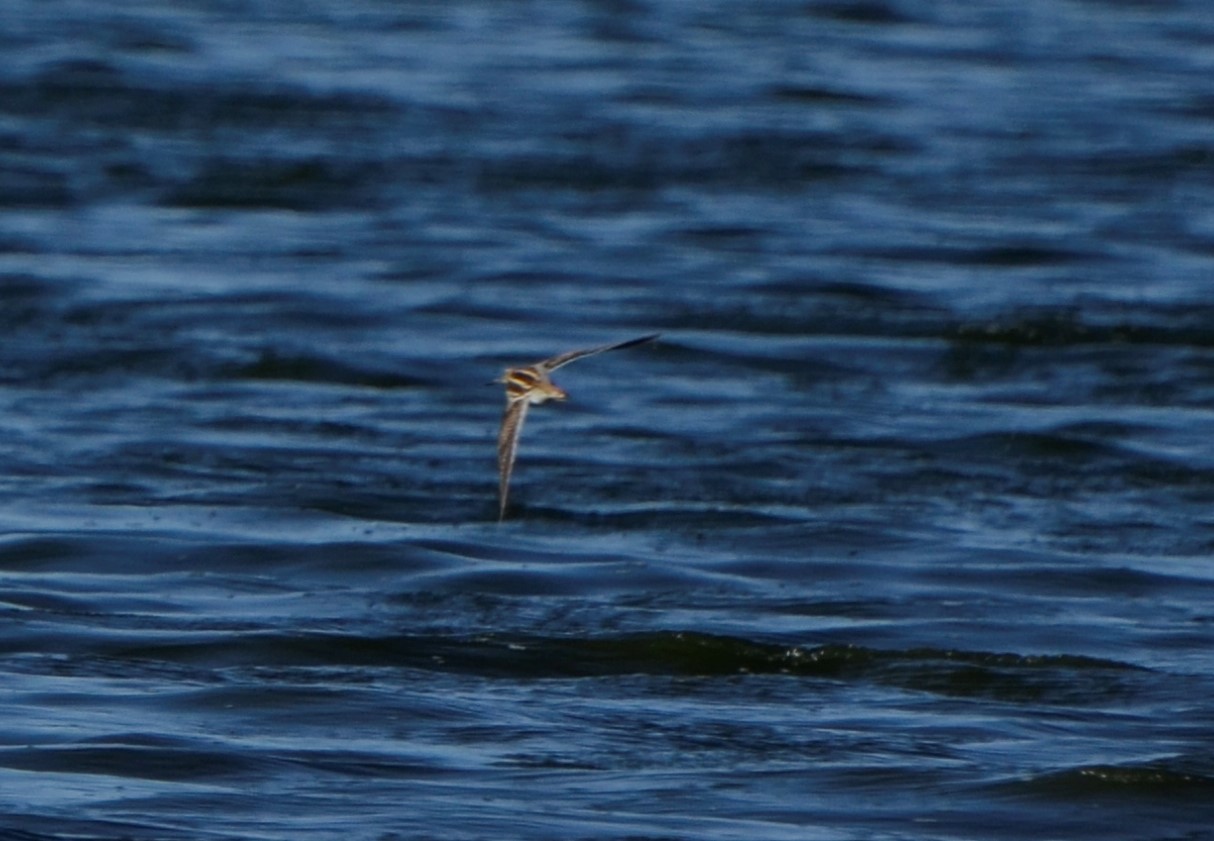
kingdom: Animalia
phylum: Chordata
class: Aves
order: Charadriiformes
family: Scolopacidae
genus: Gallinago
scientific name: Gallinago gallinago
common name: Common snipe
